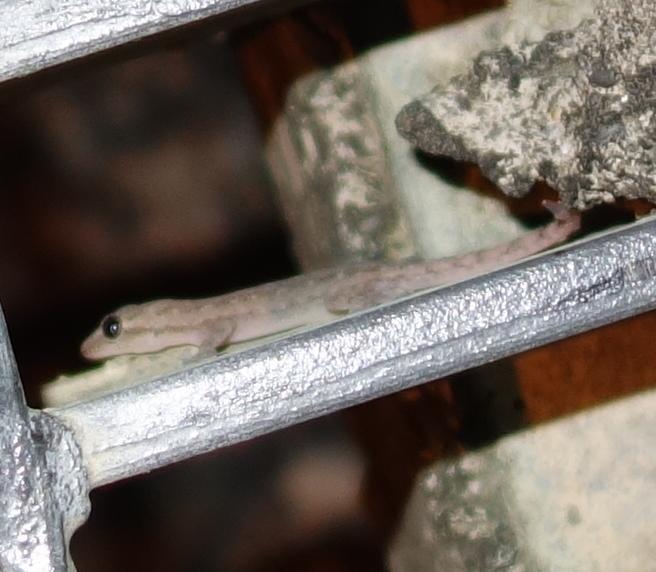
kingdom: Animalia
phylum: Chordata
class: Squamata
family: Gekkonidae
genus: Hemidactylus
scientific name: Hemidactylus frenatus
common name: Common house gecko
